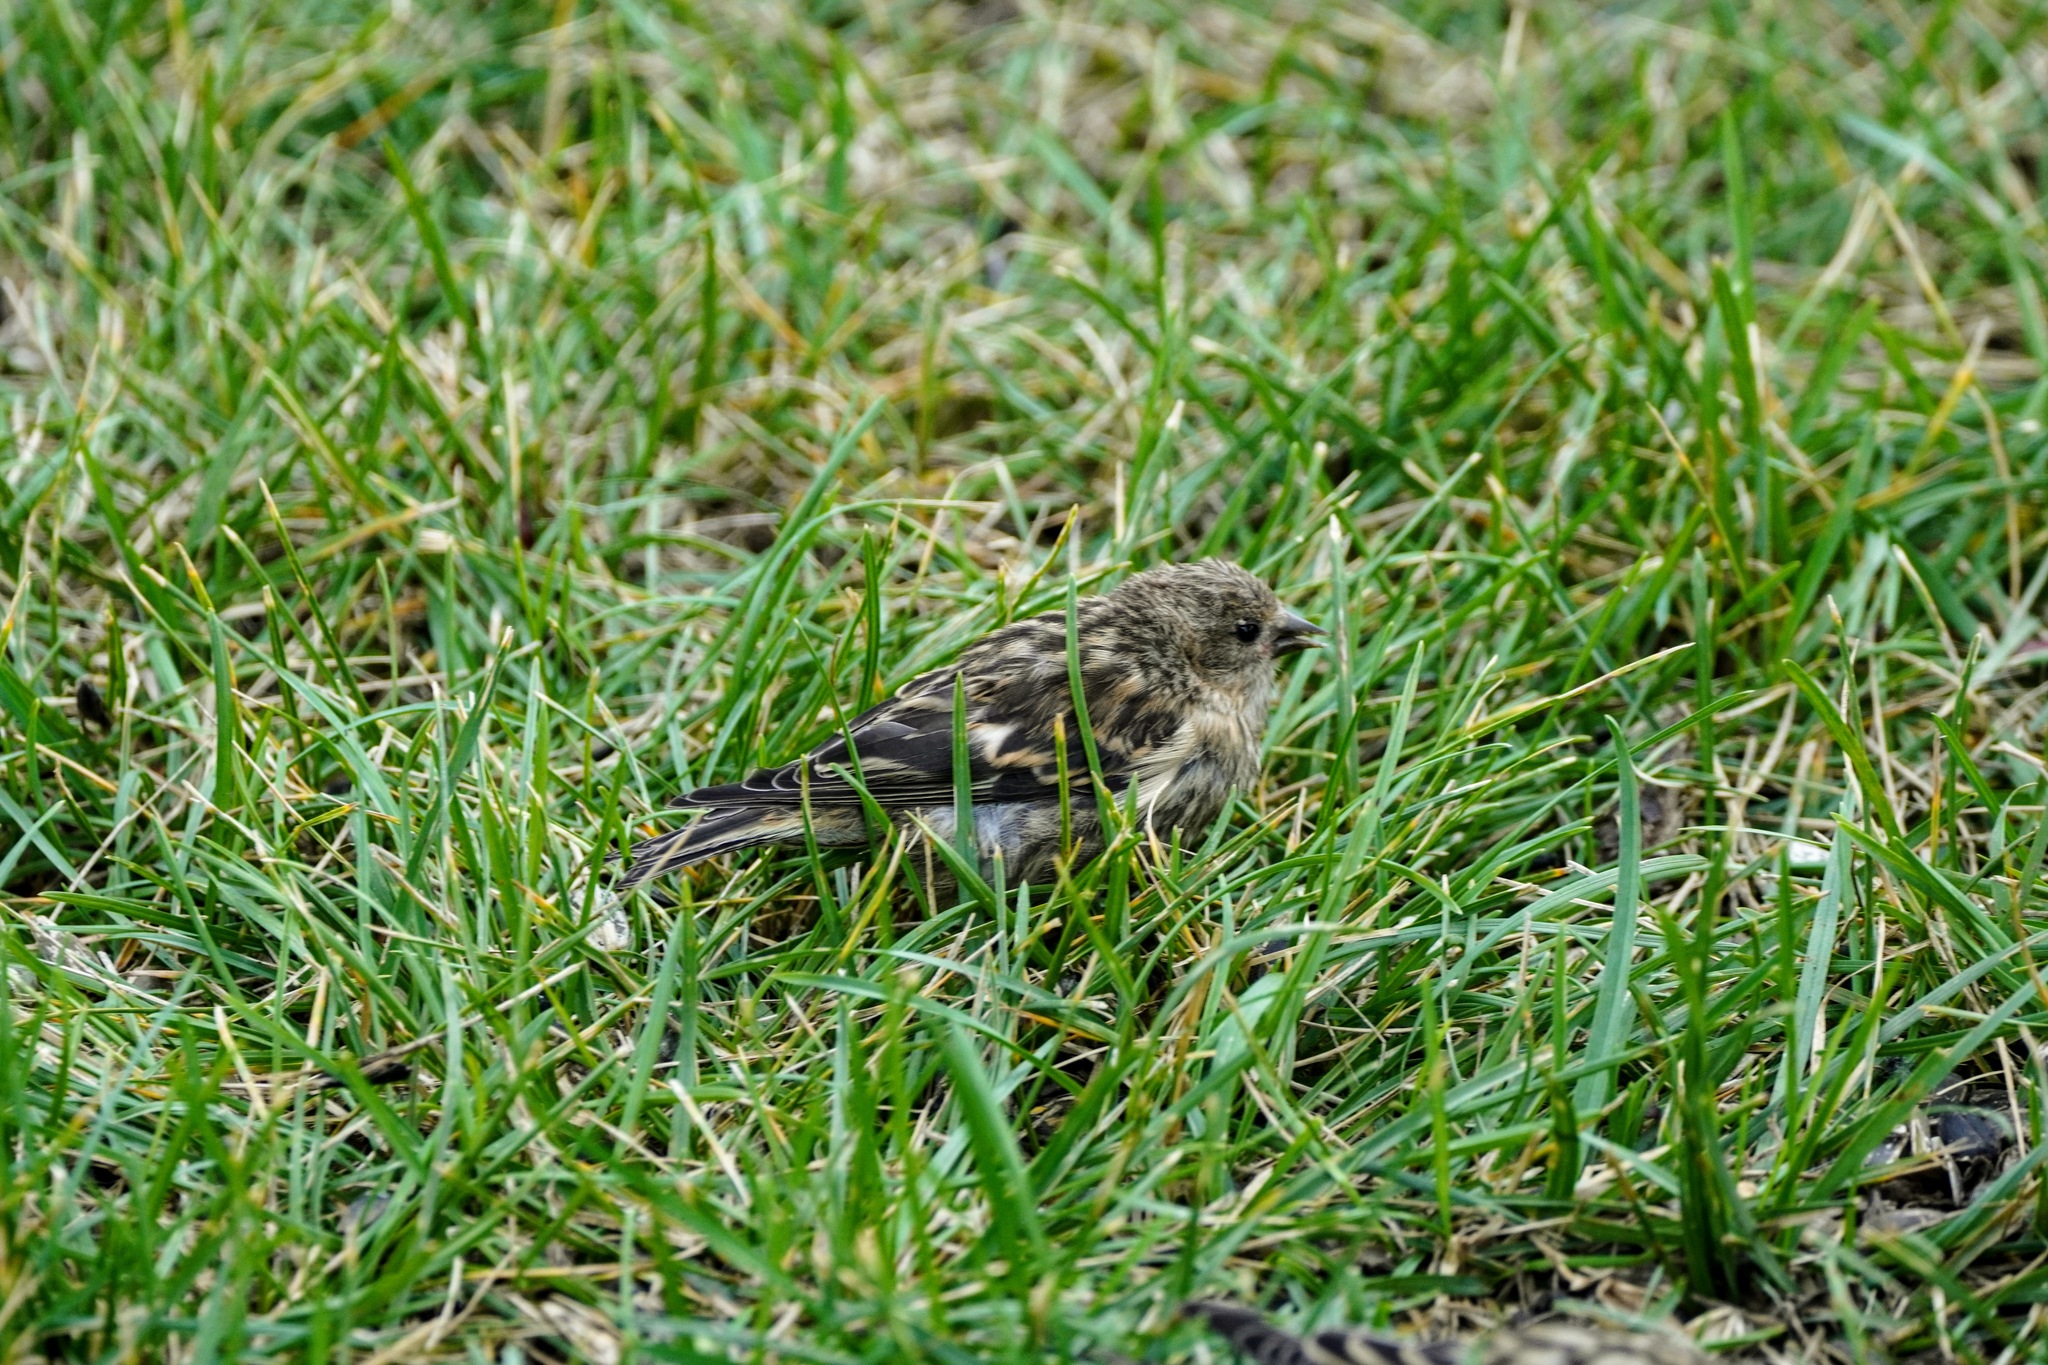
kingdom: Animalia
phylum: Chordata
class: Aves
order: Passeriformes
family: Fringillidae
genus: Spinus
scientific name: Spinus pinus
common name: Pine siskin
